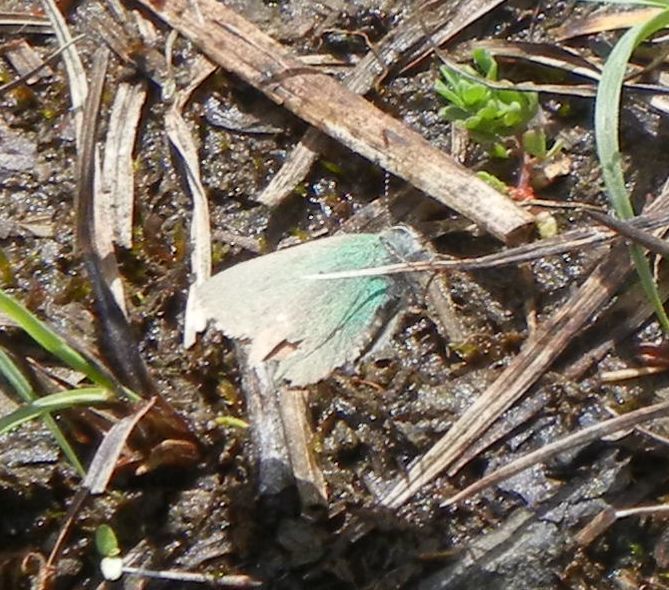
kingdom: Animalia
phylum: Arthropoda
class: Insecta
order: Lepidoptera
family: Lycaenidae
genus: Callophrys
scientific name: Callophrys rubi
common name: Green hairstreak
